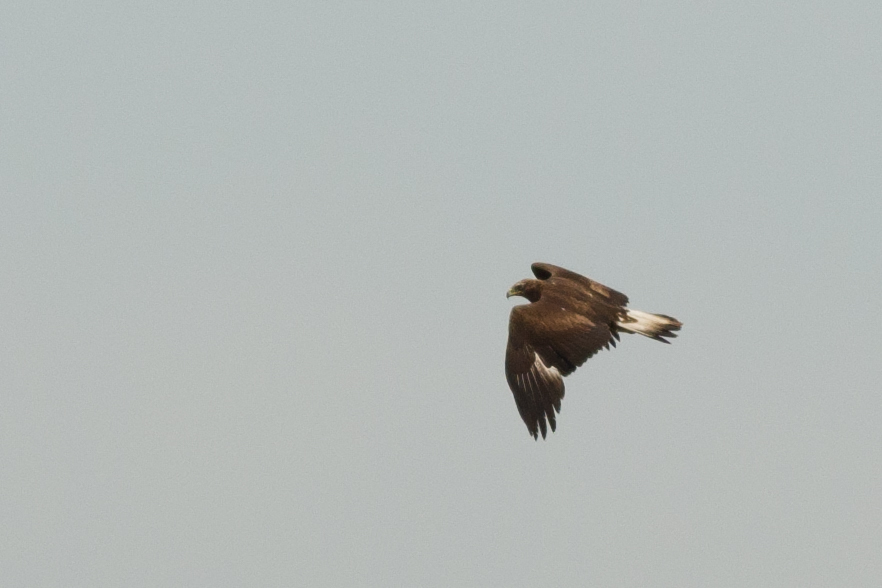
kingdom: Animalia
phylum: Chordata
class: Aves
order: Accipitriformes
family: Accipitridae
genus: Aquila
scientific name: Aquila chrysaetos
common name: Golden eagle
